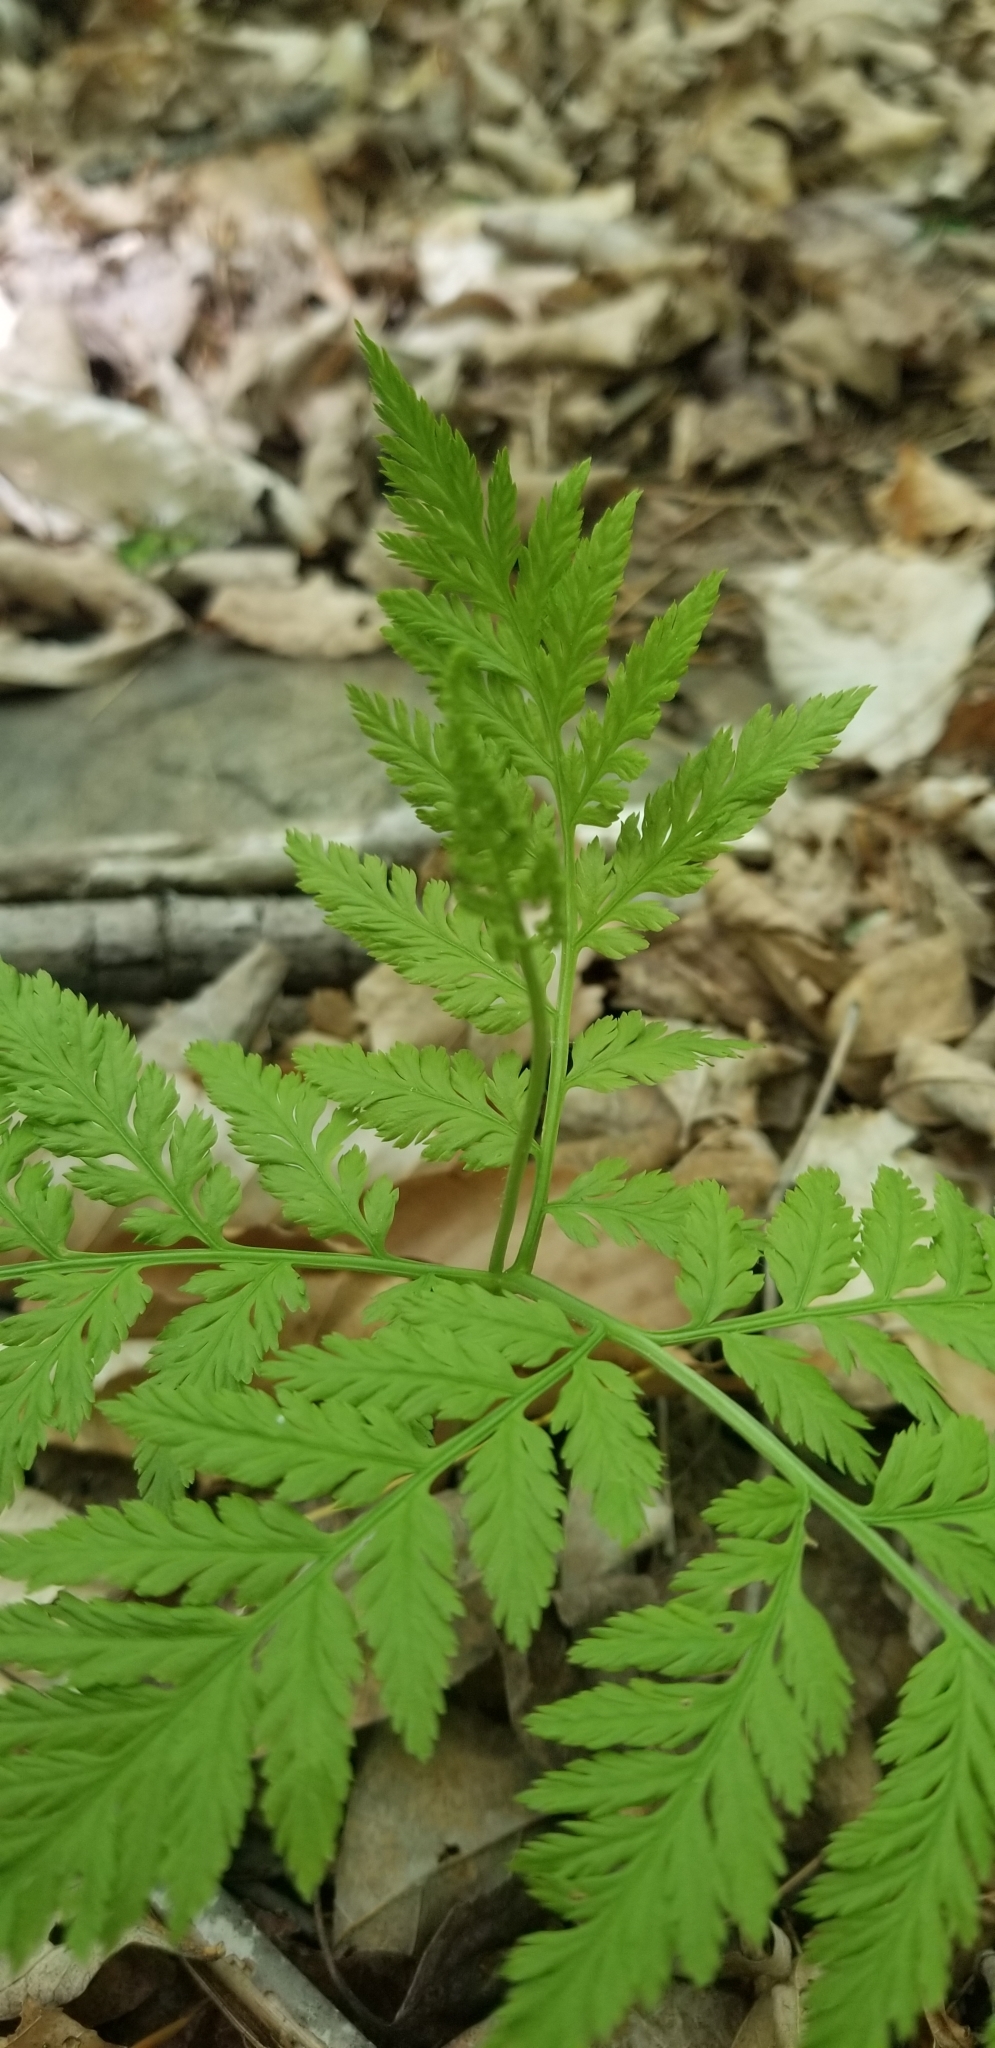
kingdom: Plantae
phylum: Tracheophyta
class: Polypodiopsida
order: Ophioglossales
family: Ophioglossaceae
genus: Botrypus
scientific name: Botrypus virginianus
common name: Common grapefern
